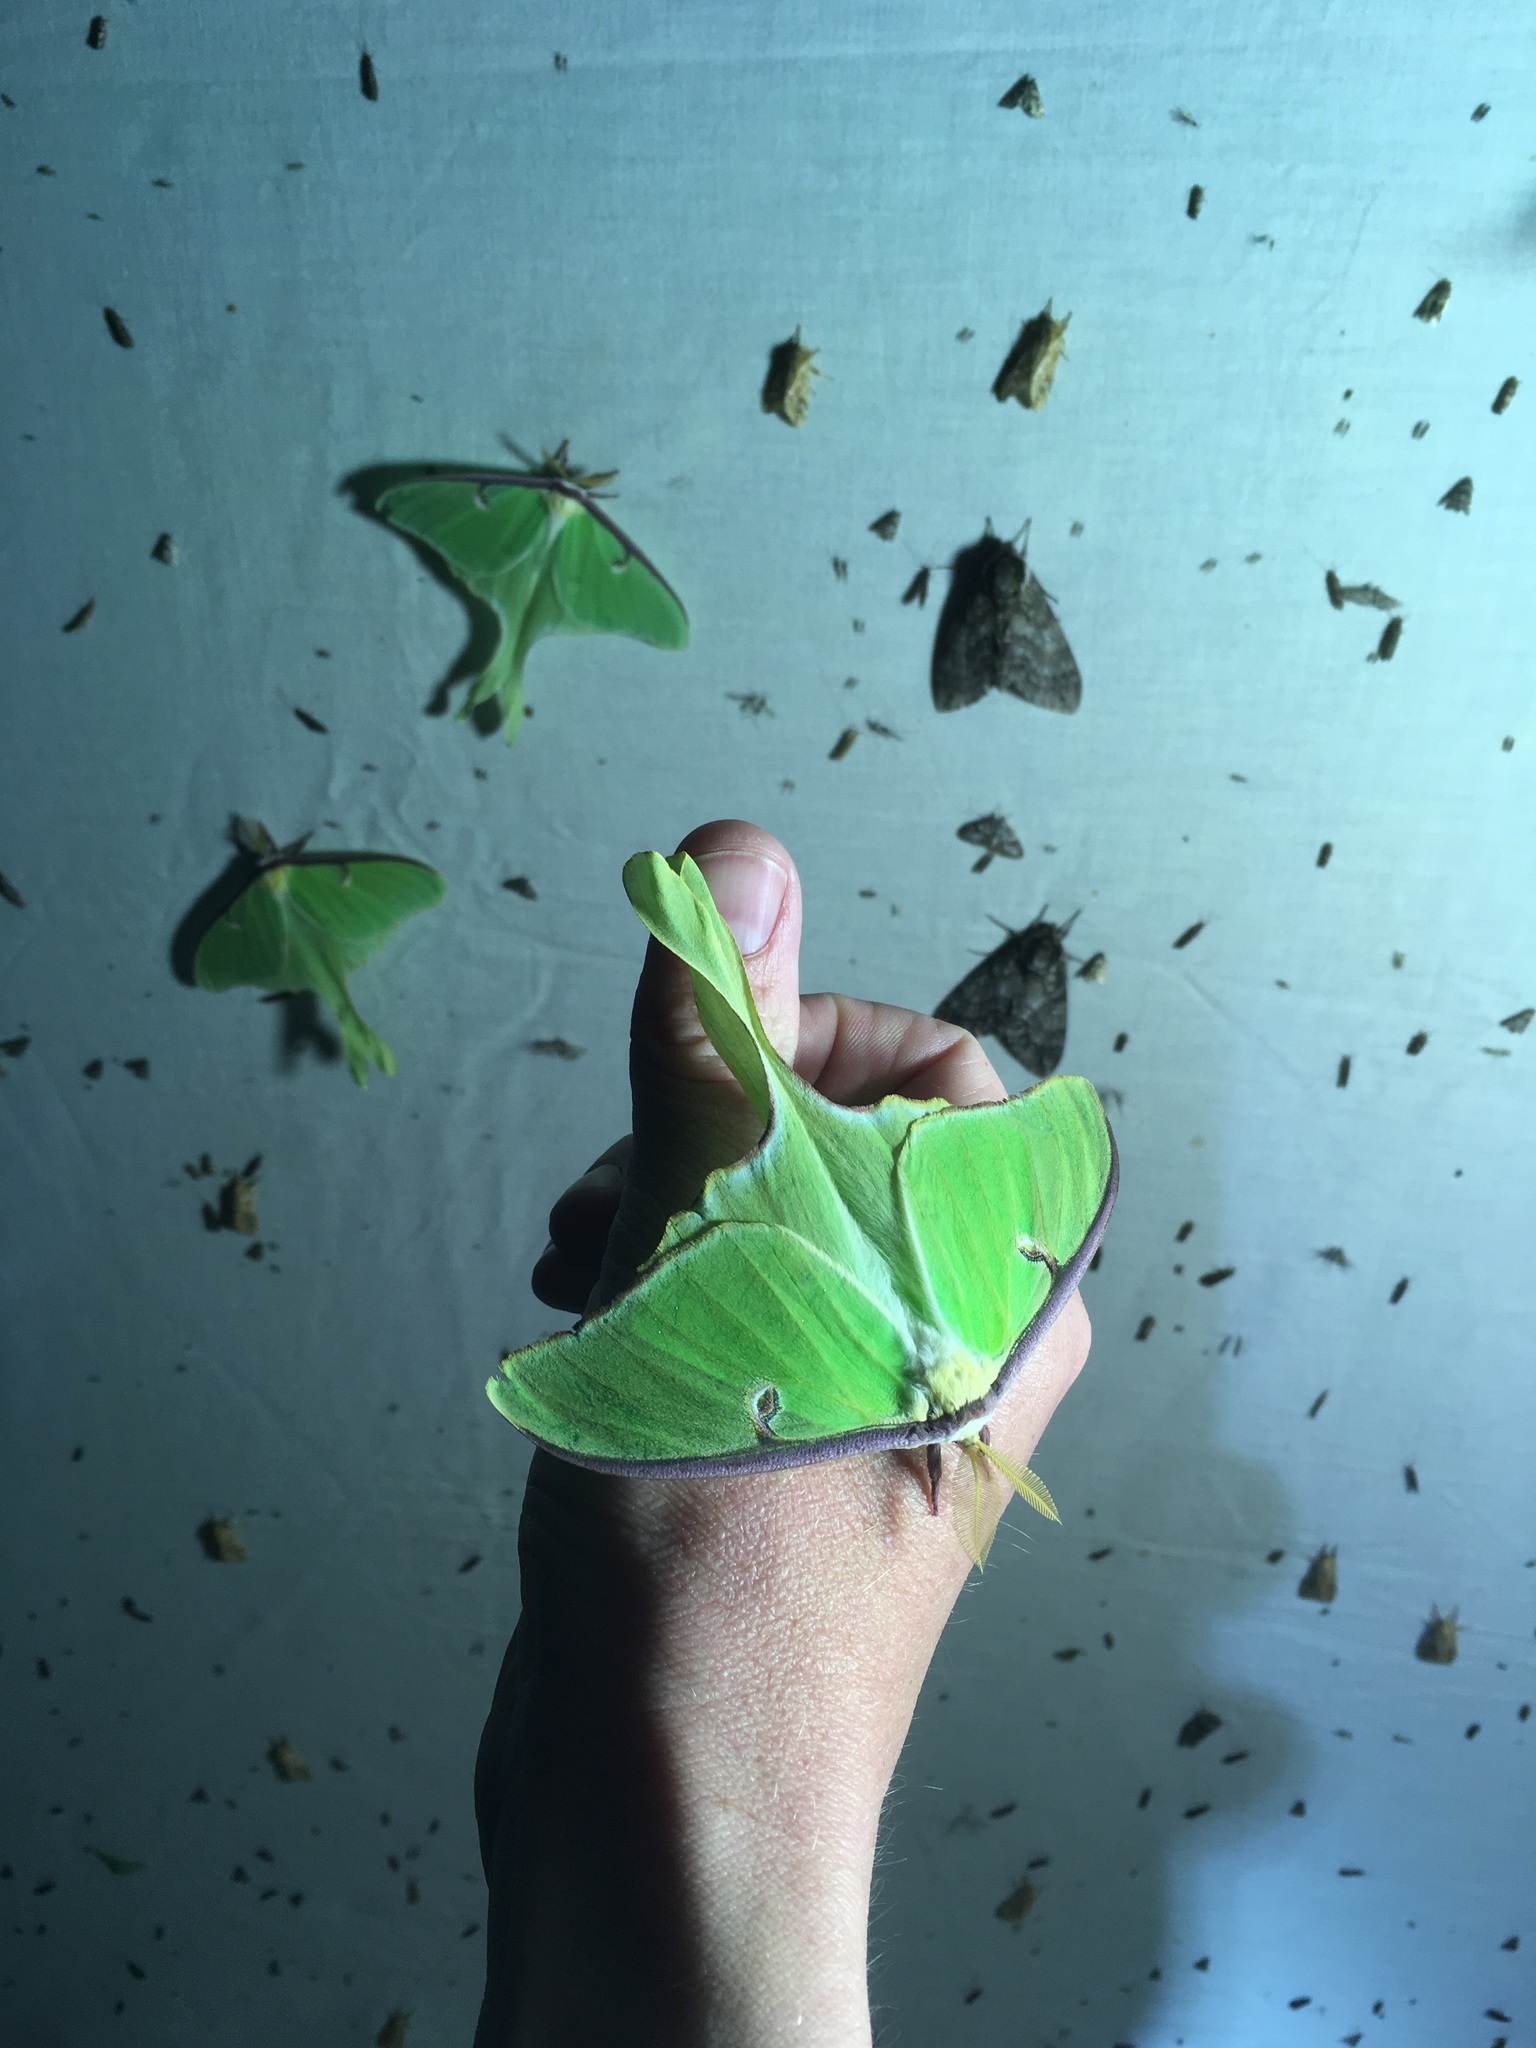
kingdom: Animalia
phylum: Arthropoda
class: Insecta
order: Lepidoptera
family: Saturniidae
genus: Actias
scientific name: Actias luna
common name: Luna moth
